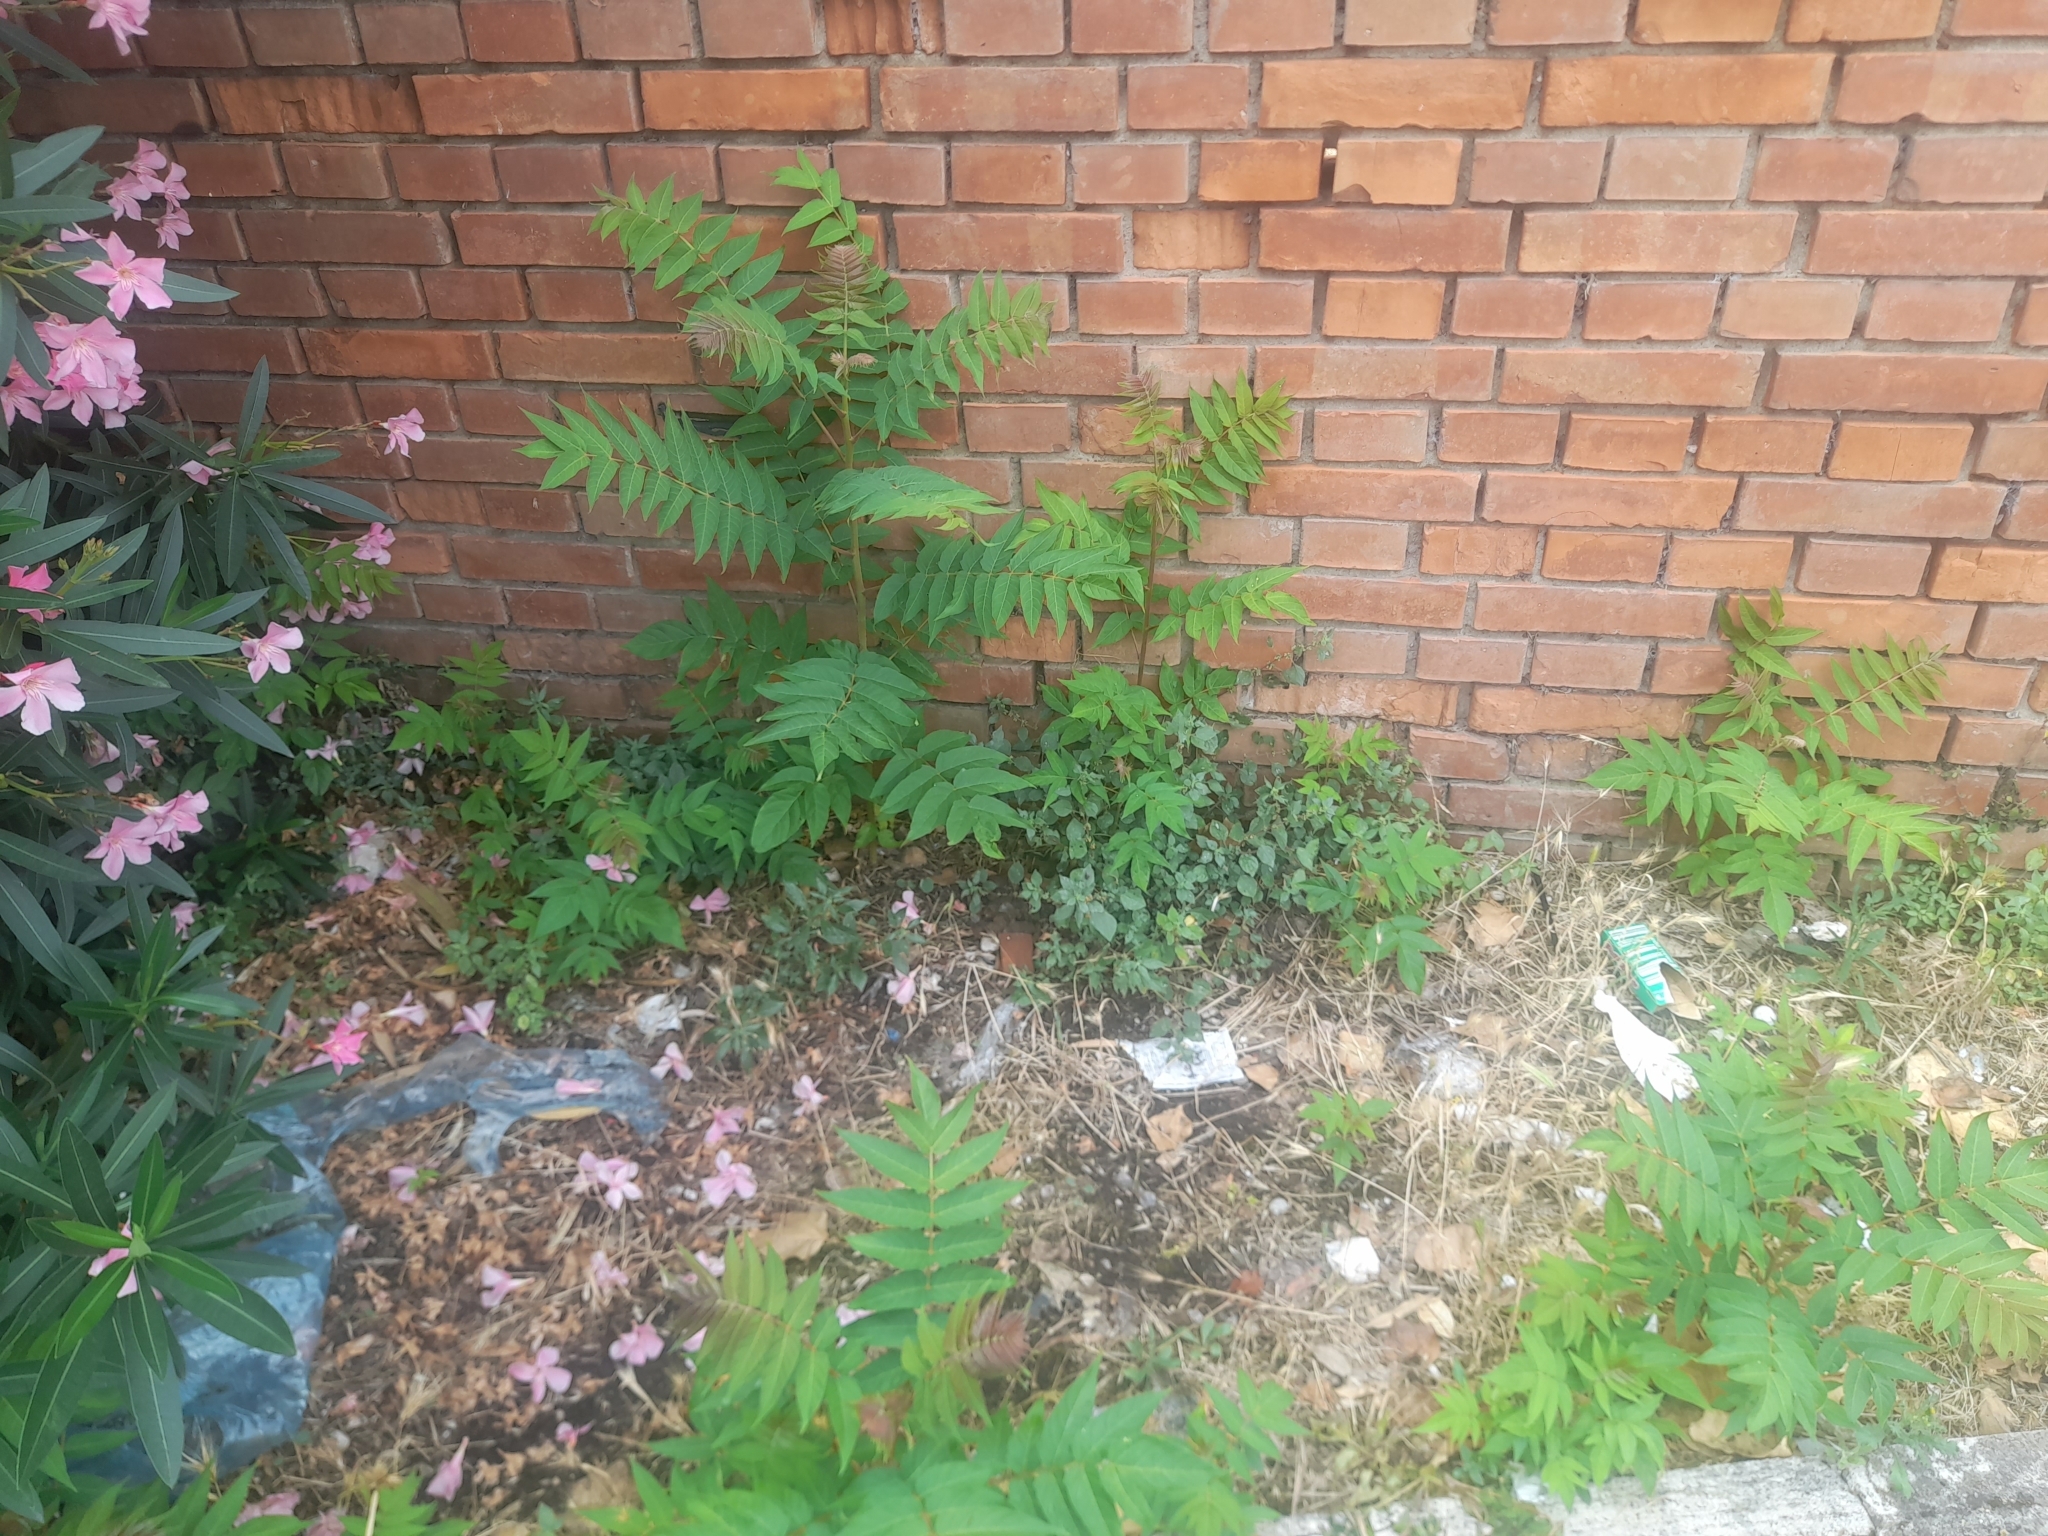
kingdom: Plantae
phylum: Tracheophyta
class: Magnoliopsida
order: Sapindales
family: Simaroubaceae
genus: Ailanthus
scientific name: Ailanthus altissima
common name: Tree-of-heaven
